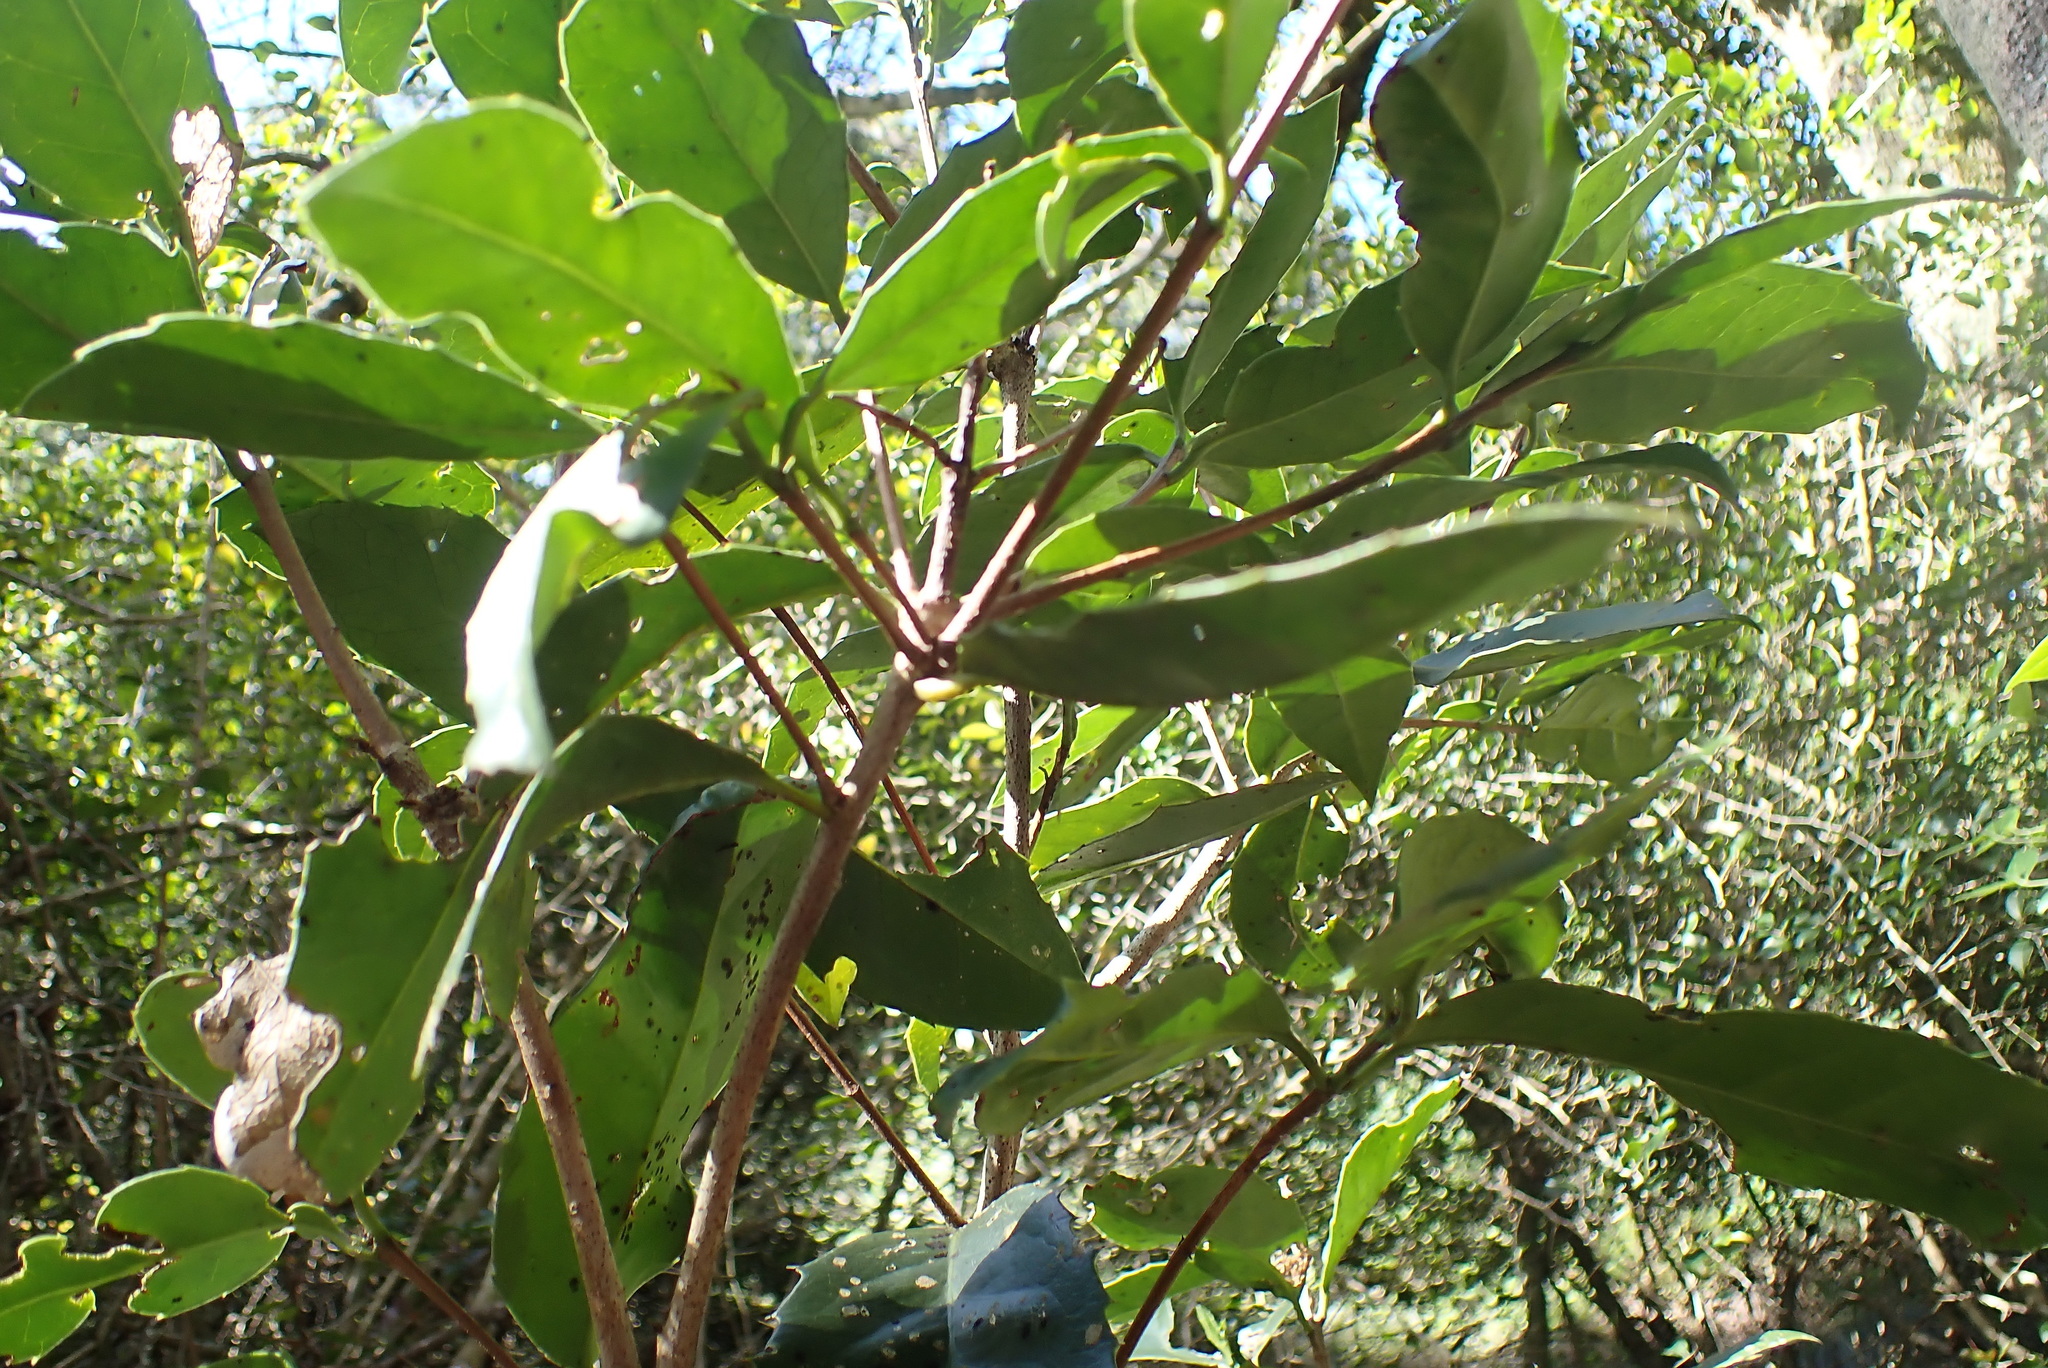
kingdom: Plantae
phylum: Tracheophyta
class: Magnoliopsida
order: Celastrales
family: Celastraceae
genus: Elaeodendron
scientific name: Elaeodendron croceum
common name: Saffron
